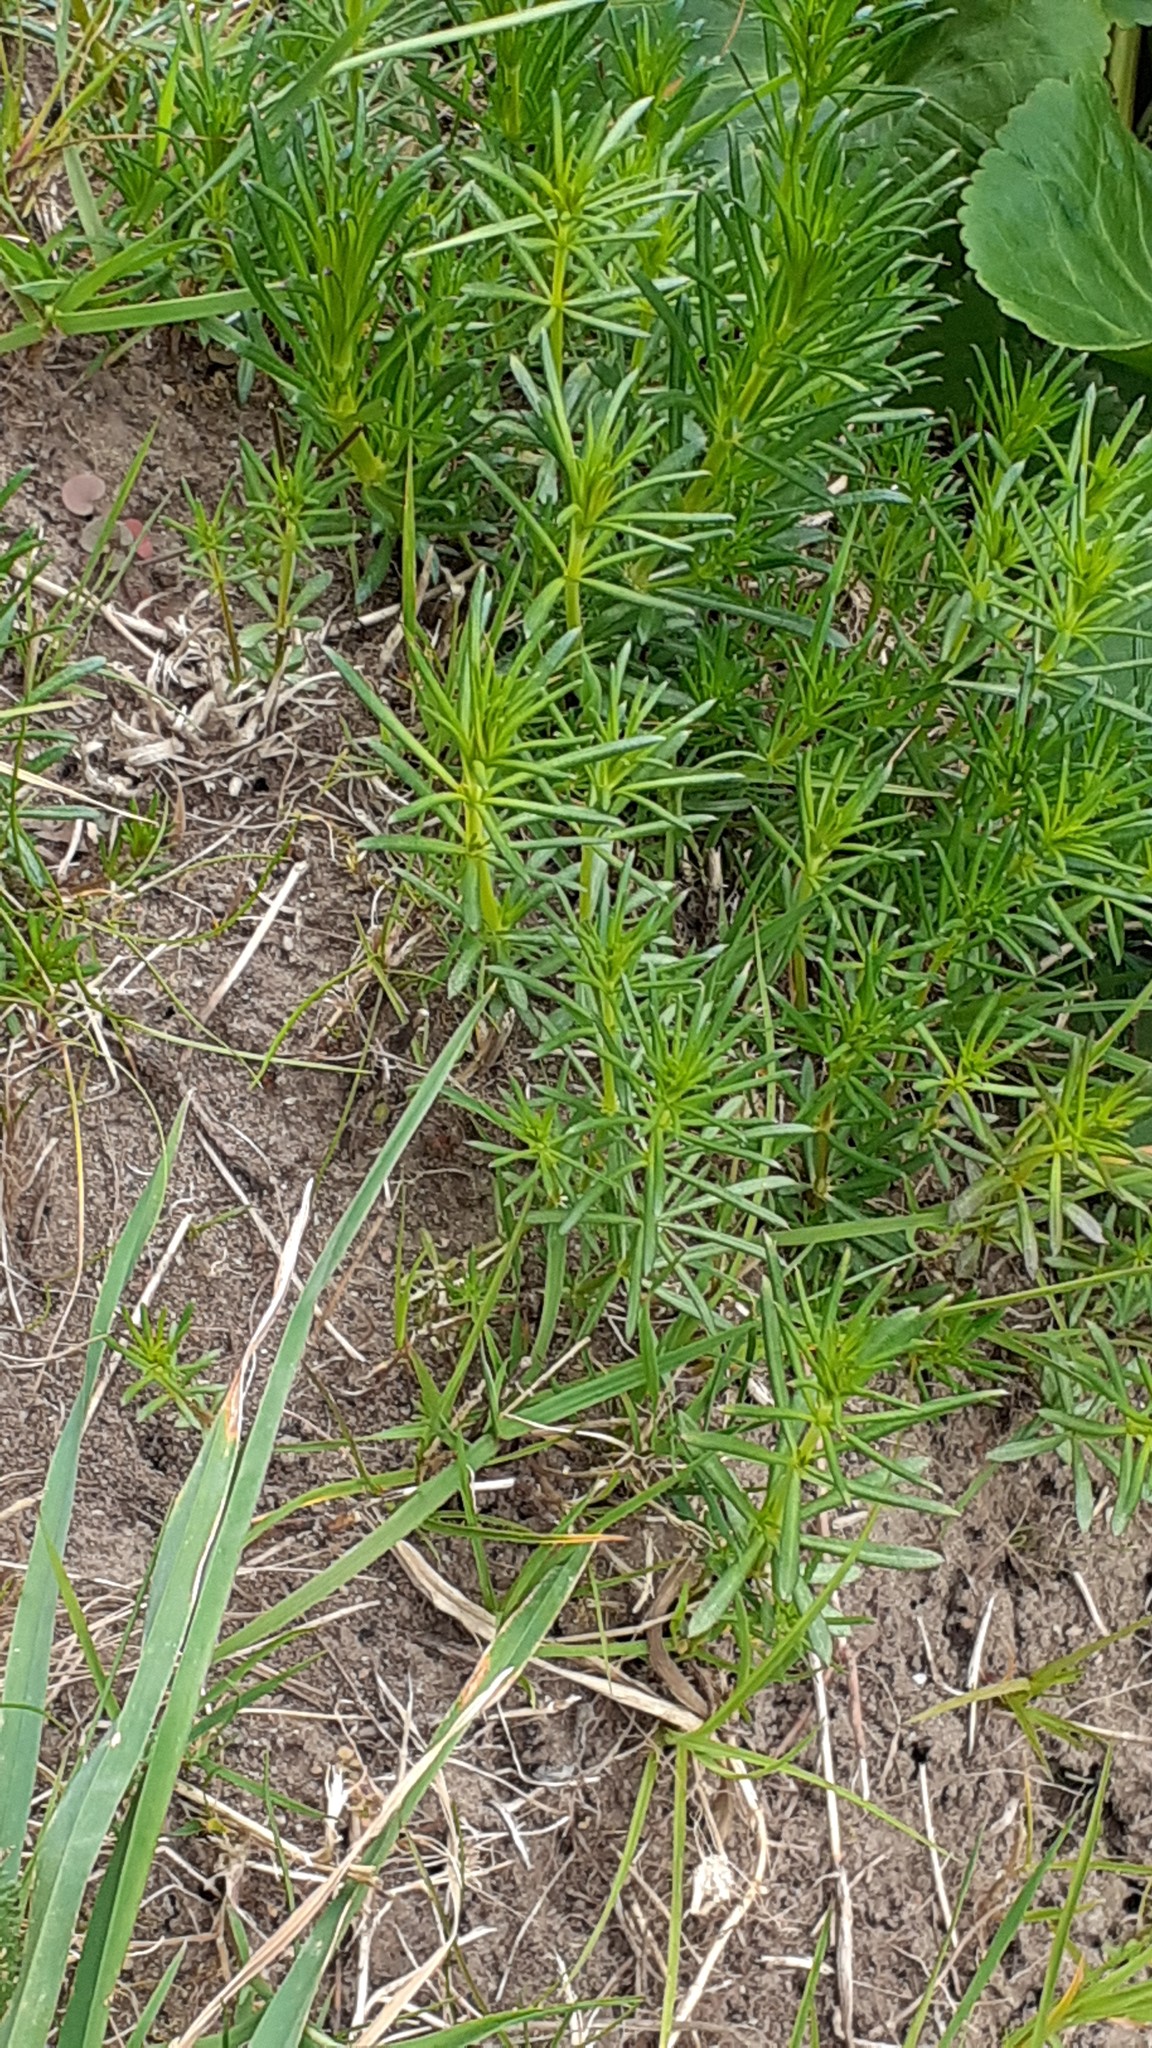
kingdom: Plantae
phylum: Tracheophyta
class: Magnoliopsida
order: Gentianales
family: Rubiaceae
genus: Galium
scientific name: Galium verum
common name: Lady's bedstraw
